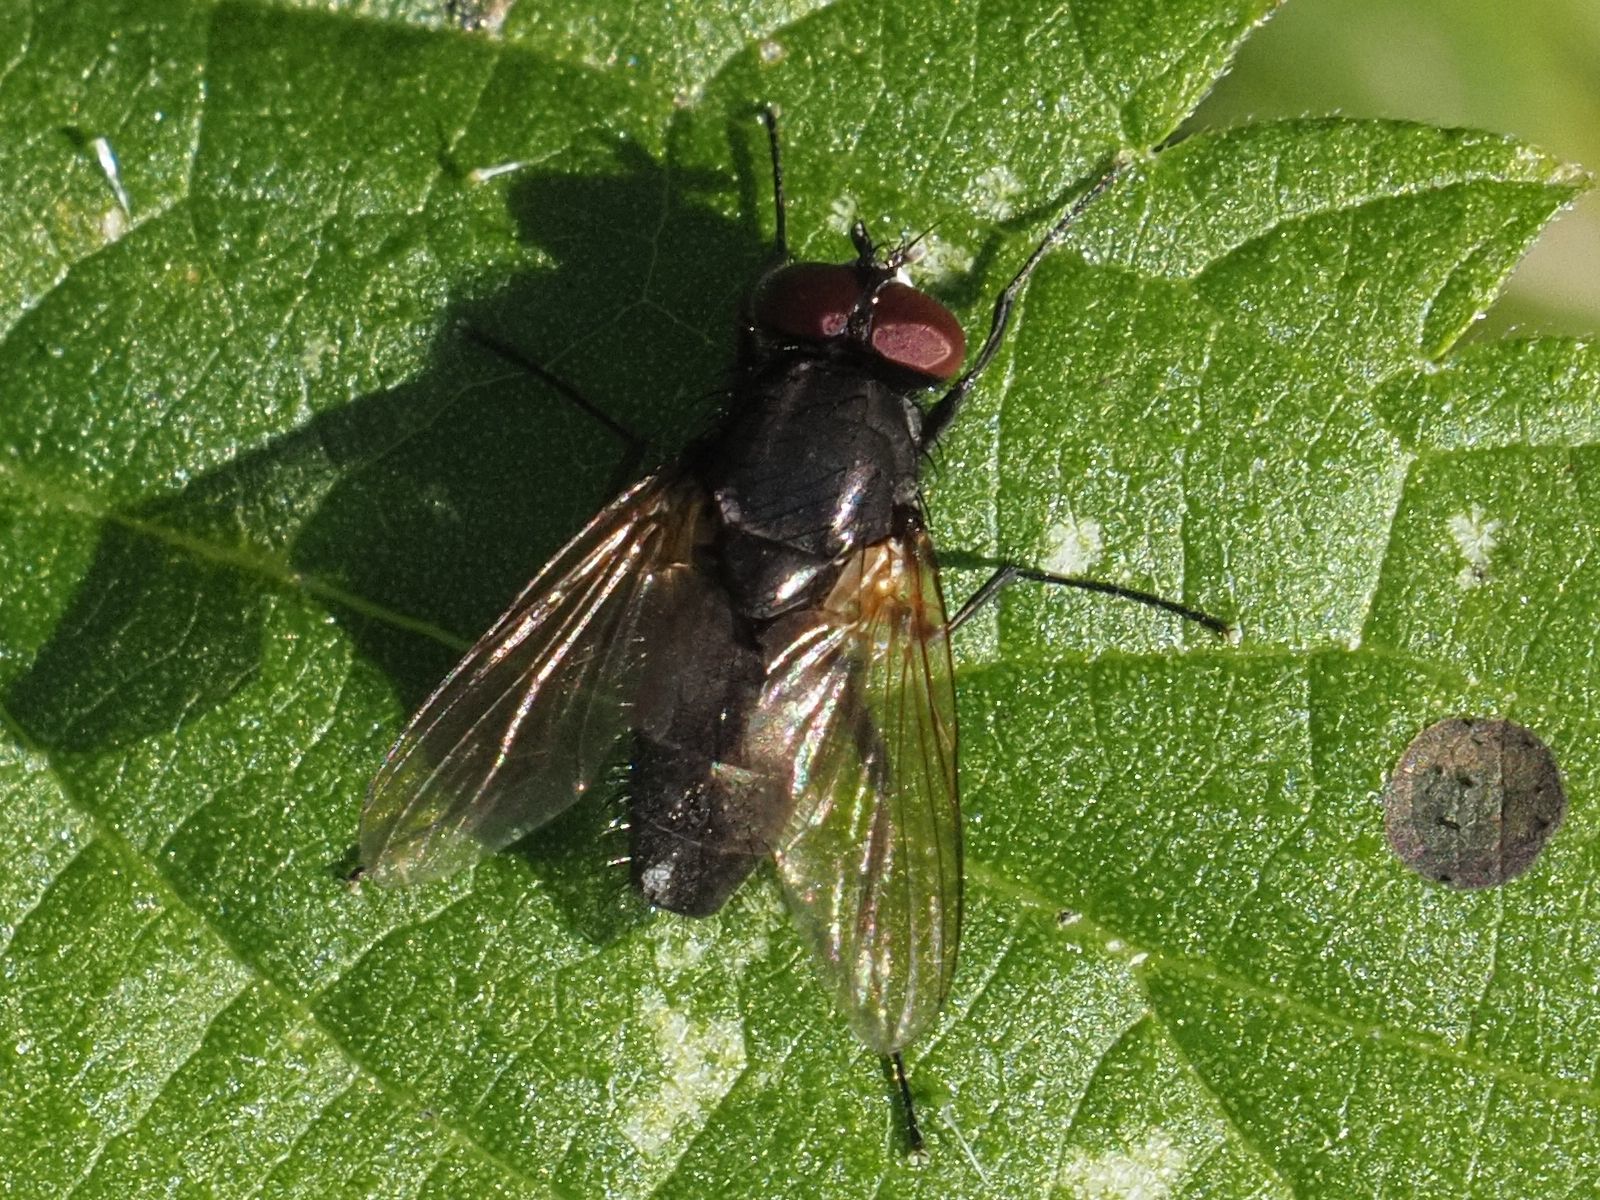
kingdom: Animalia
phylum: Arthropoda
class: Insecta
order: Diptera
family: Tachinidae
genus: Voria
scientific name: Voria ruralis
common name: Parasitic fly
